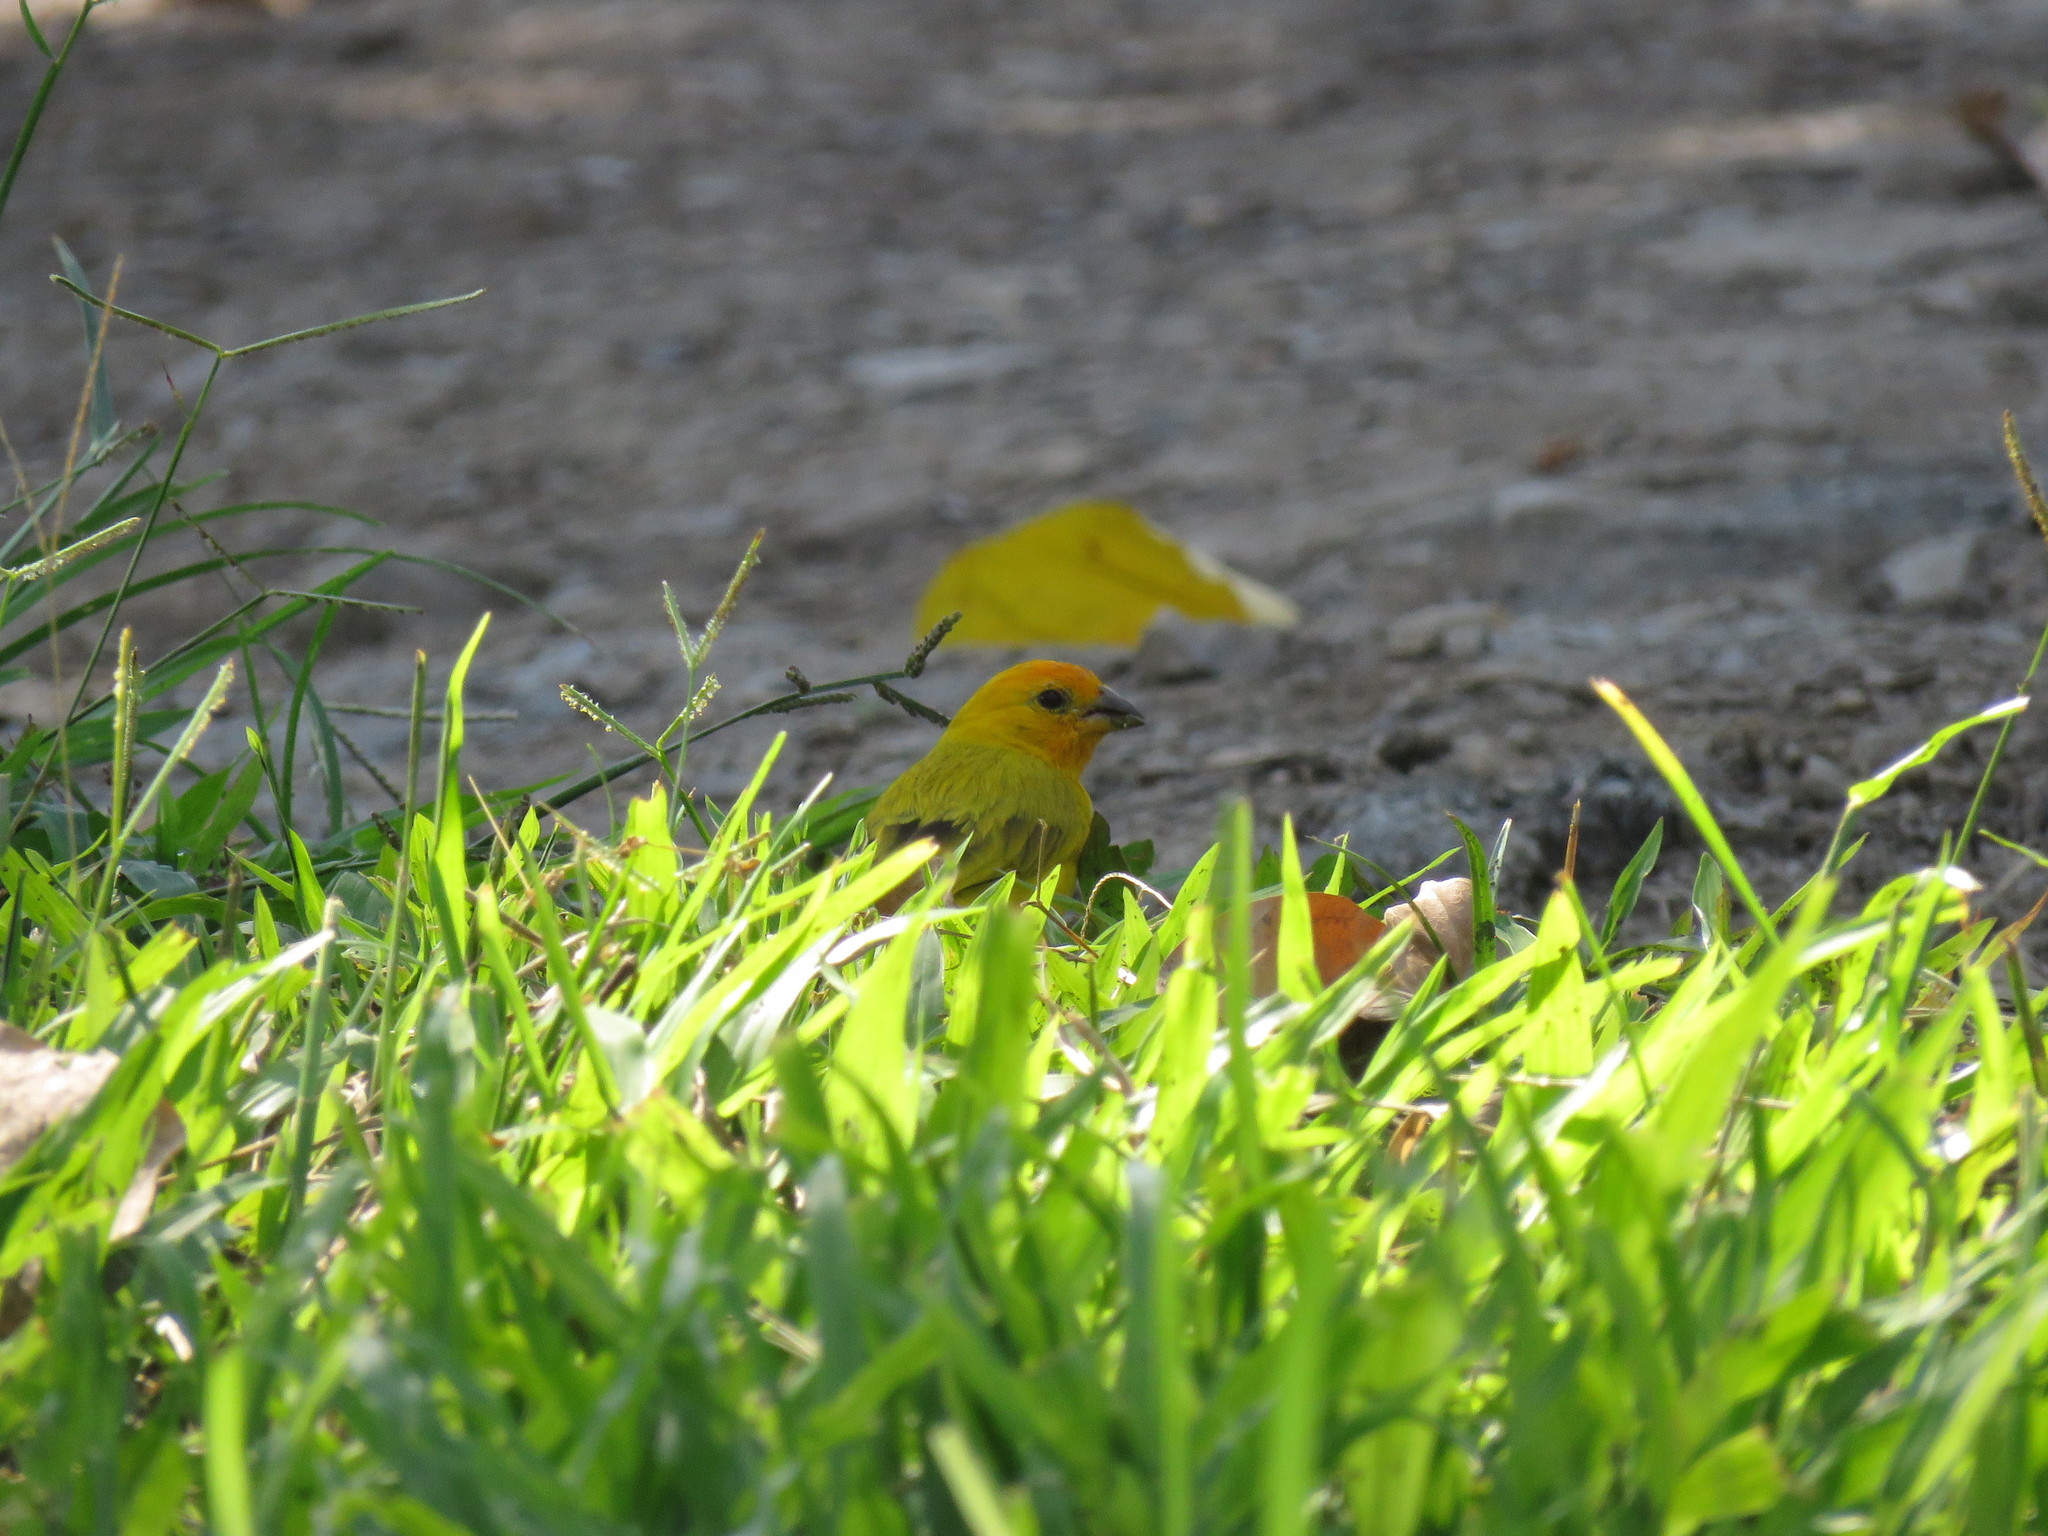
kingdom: Animalia
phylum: Chordata
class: Aves
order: Passeriformes
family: Thraupidae
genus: Sicalis
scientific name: Sicalis flaveola
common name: Saffron finch
